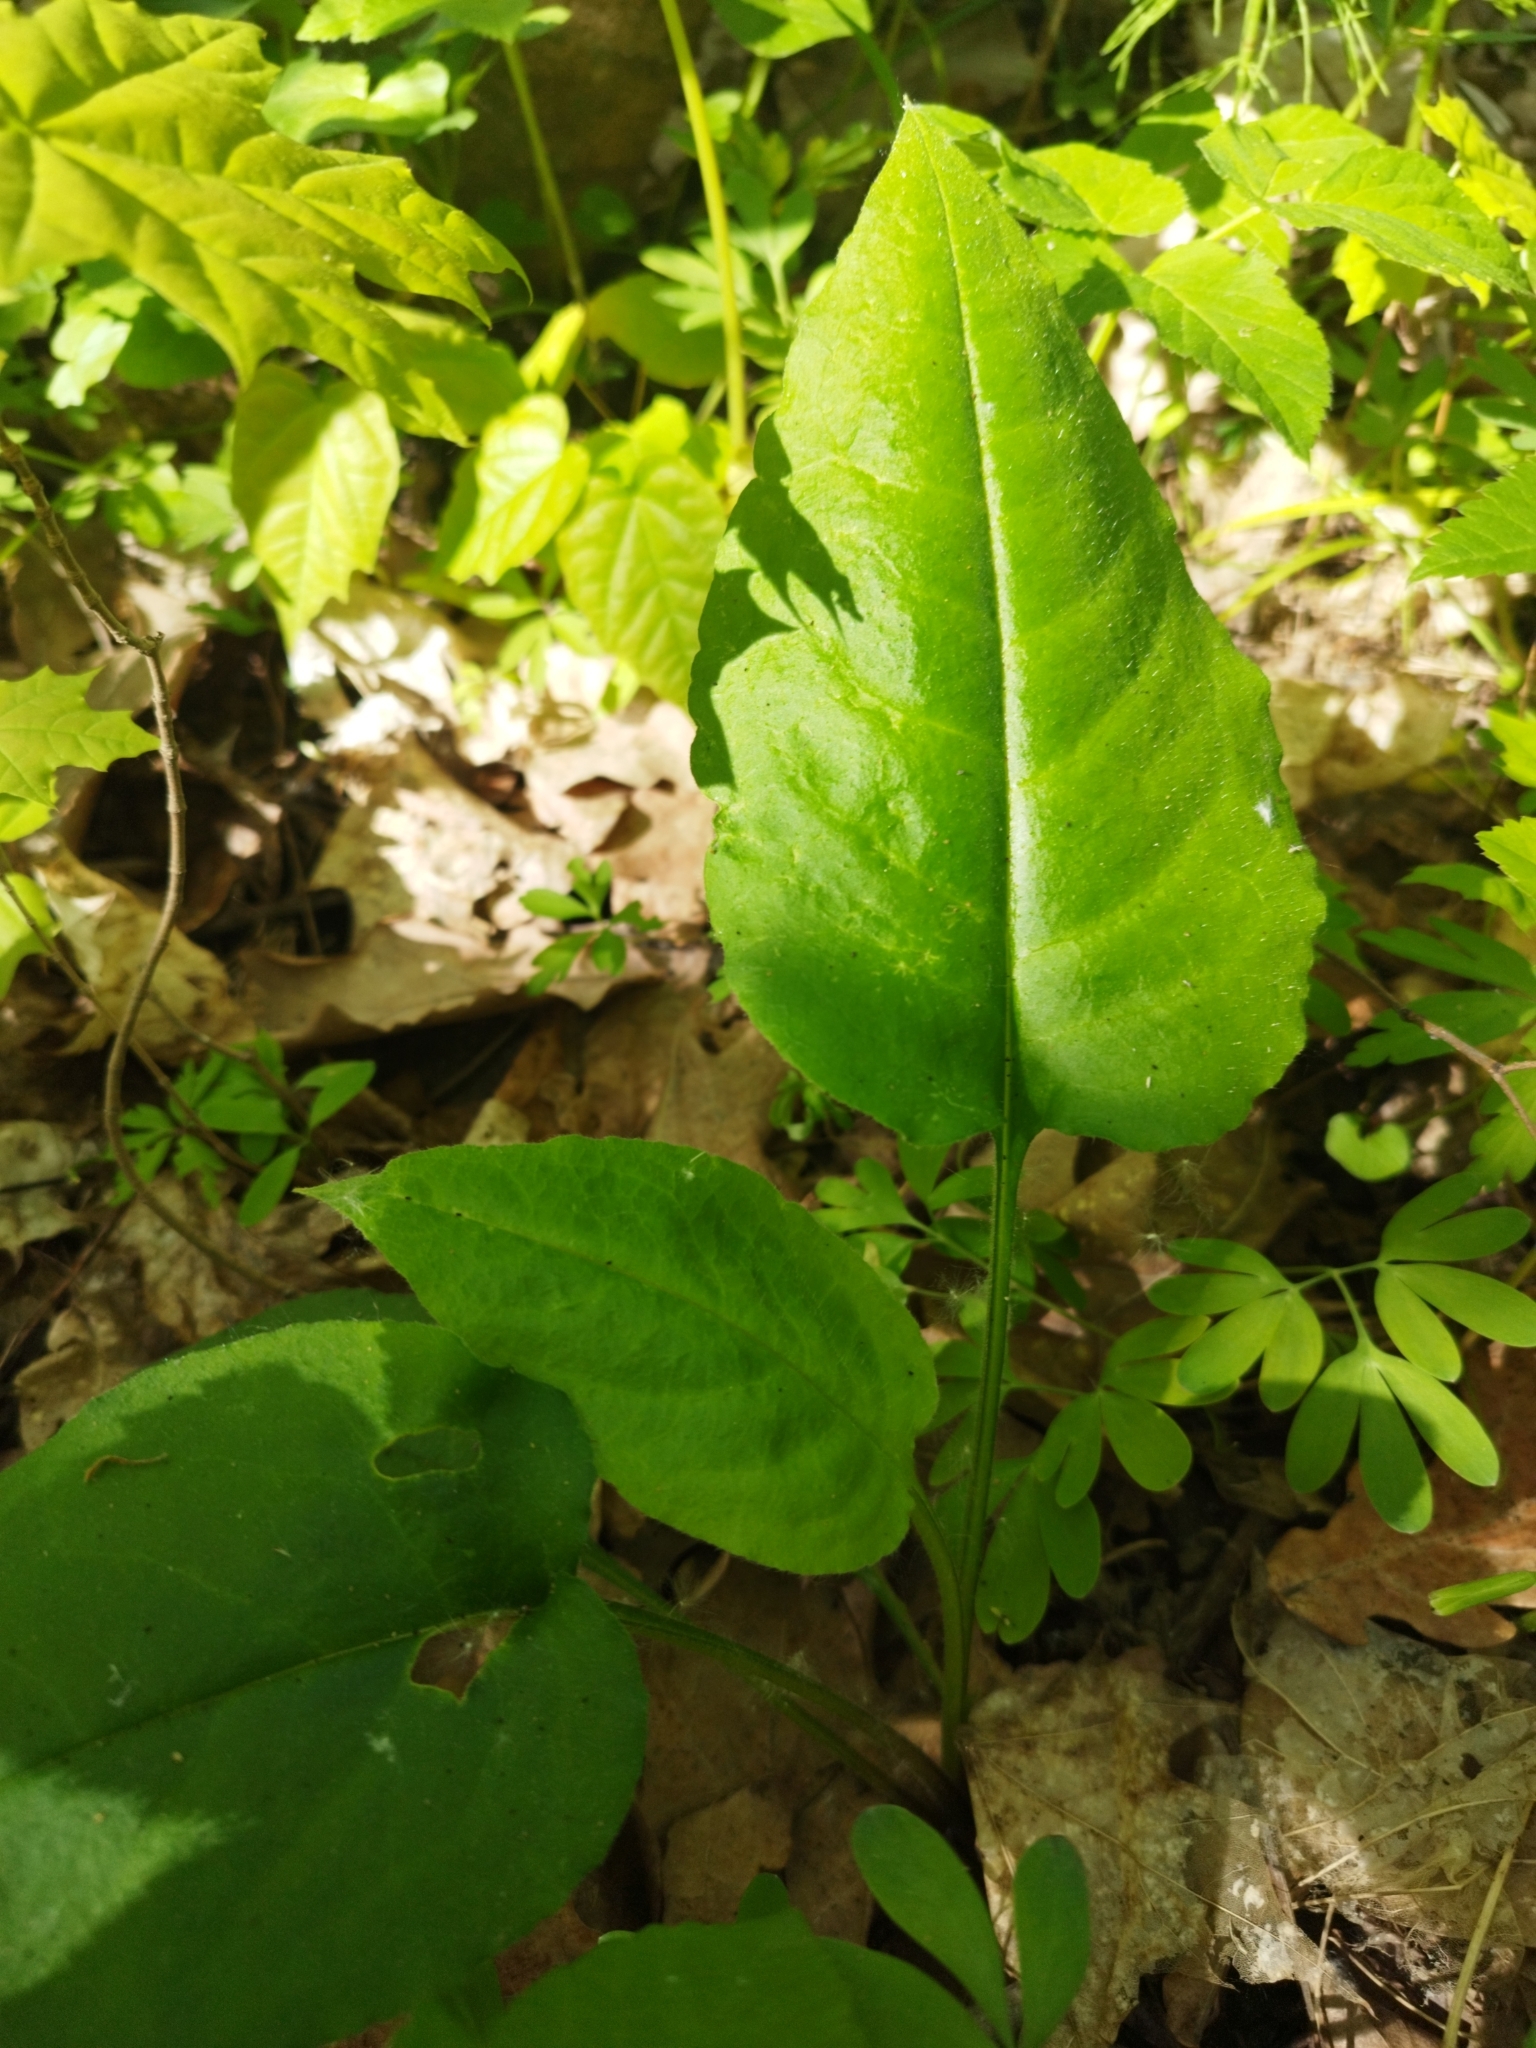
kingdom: Plantae
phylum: Tracheophyta
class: Magnoliopsida
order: Boraginales
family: Boraginaceae
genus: Pulmonaria
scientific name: Pulmonaria obscura
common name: Suffolk lungwort
